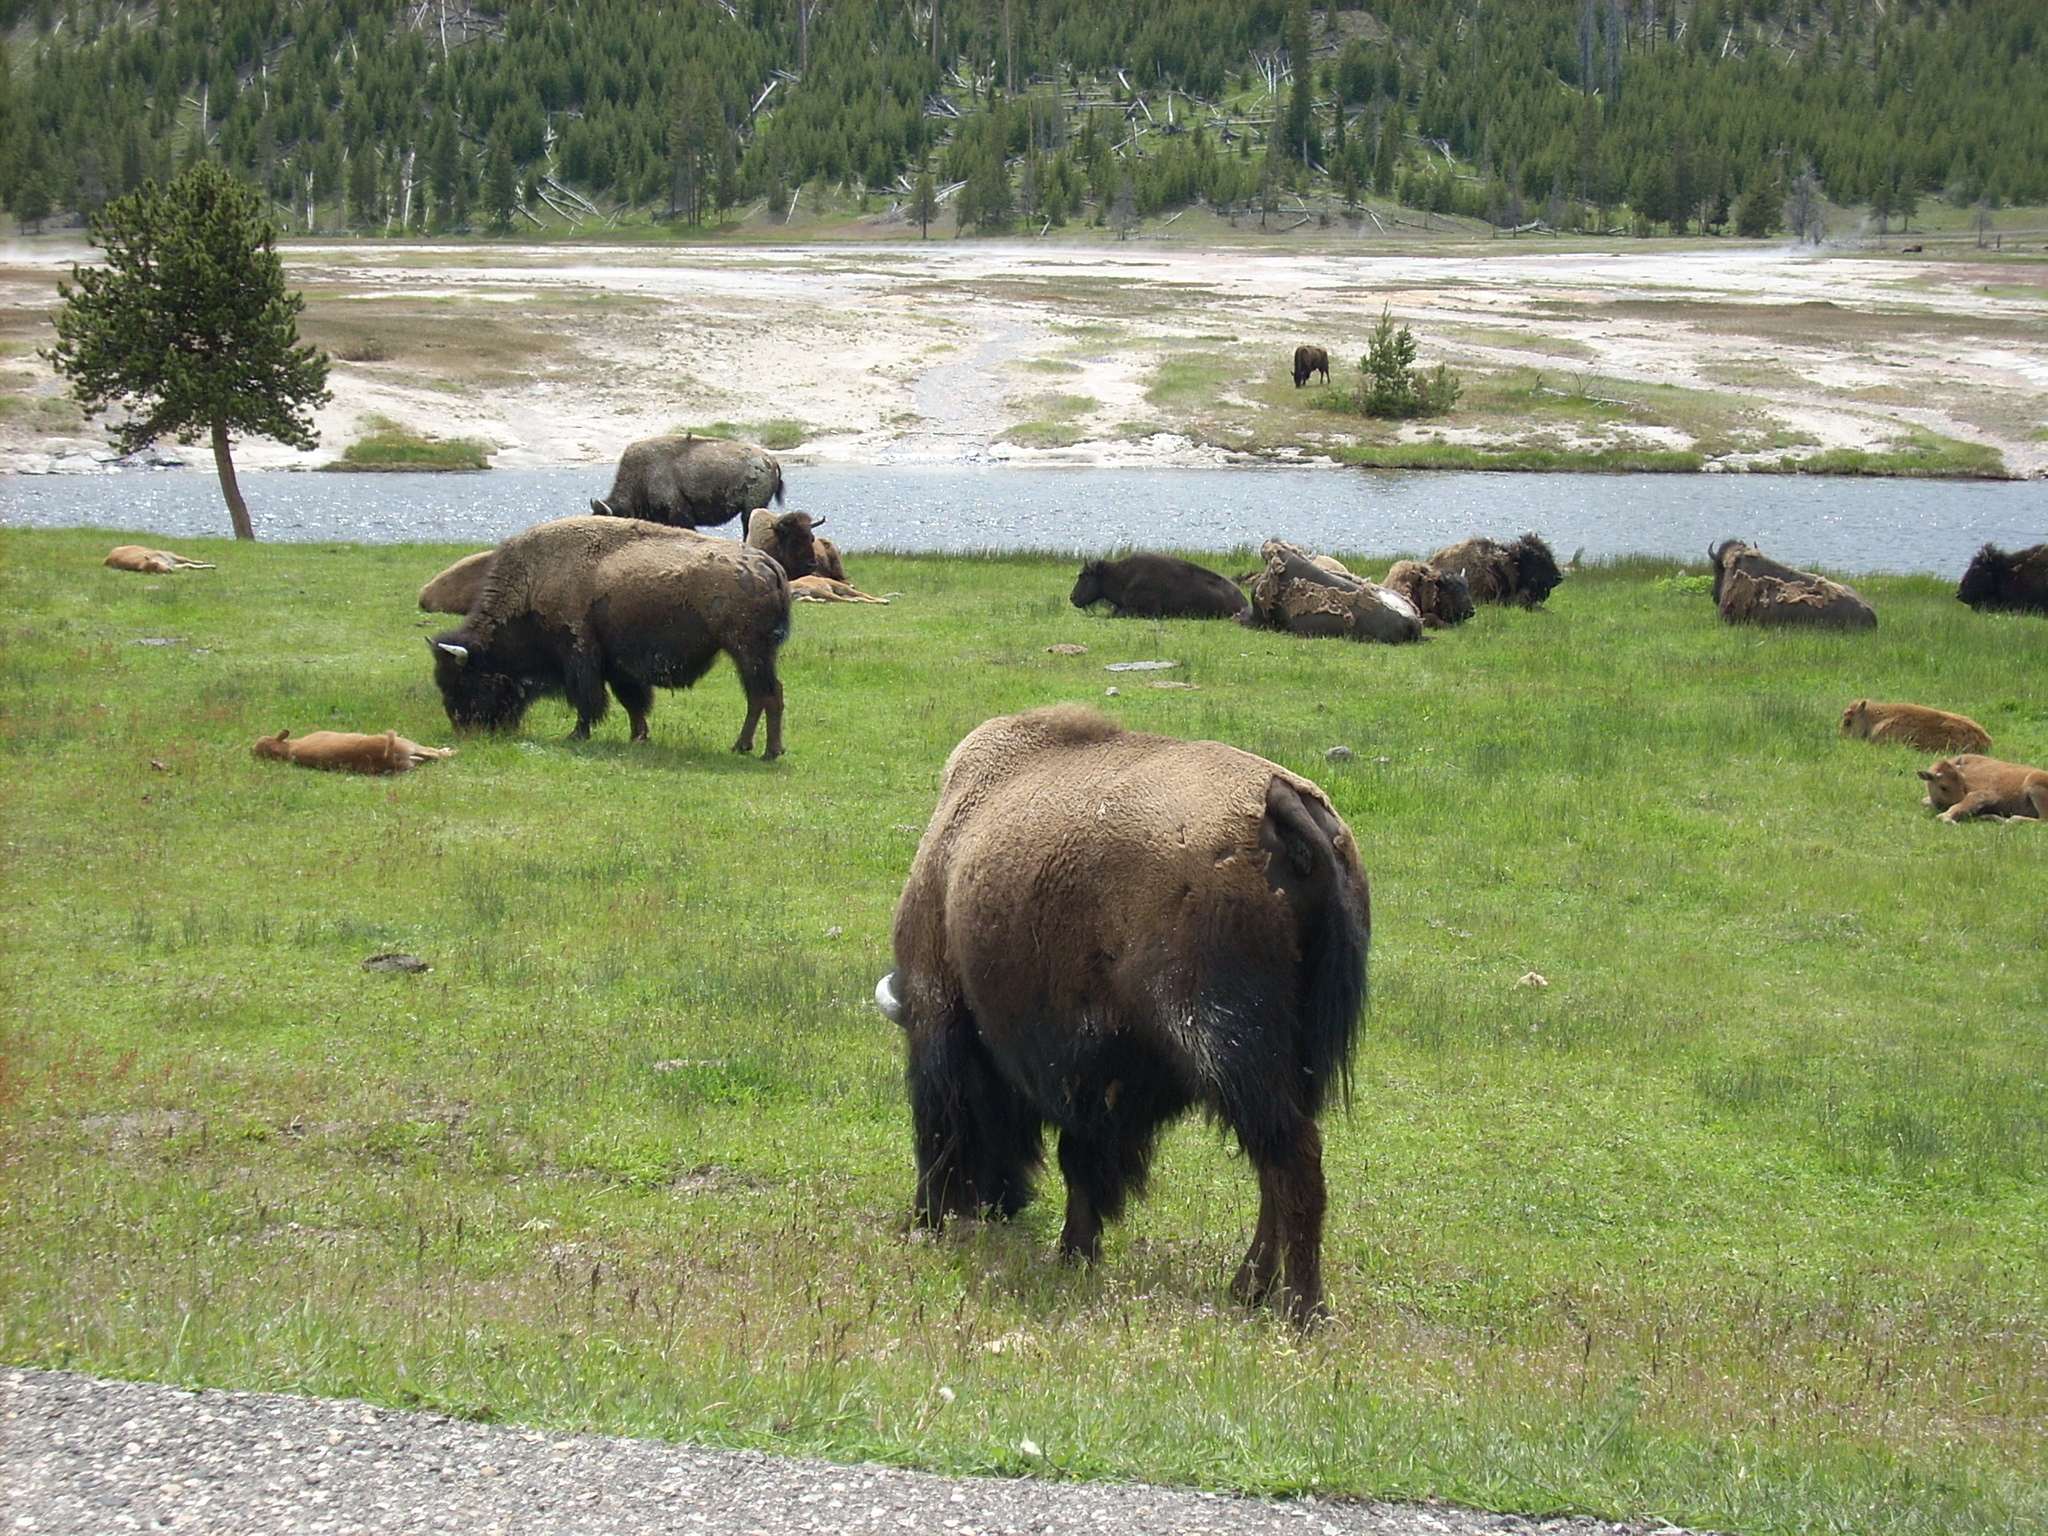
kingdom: Animalia
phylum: Chordata
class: Mammalia
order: Artiodactyla
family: Bovidae
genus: Bison
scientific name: Bison bison
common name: American bison
